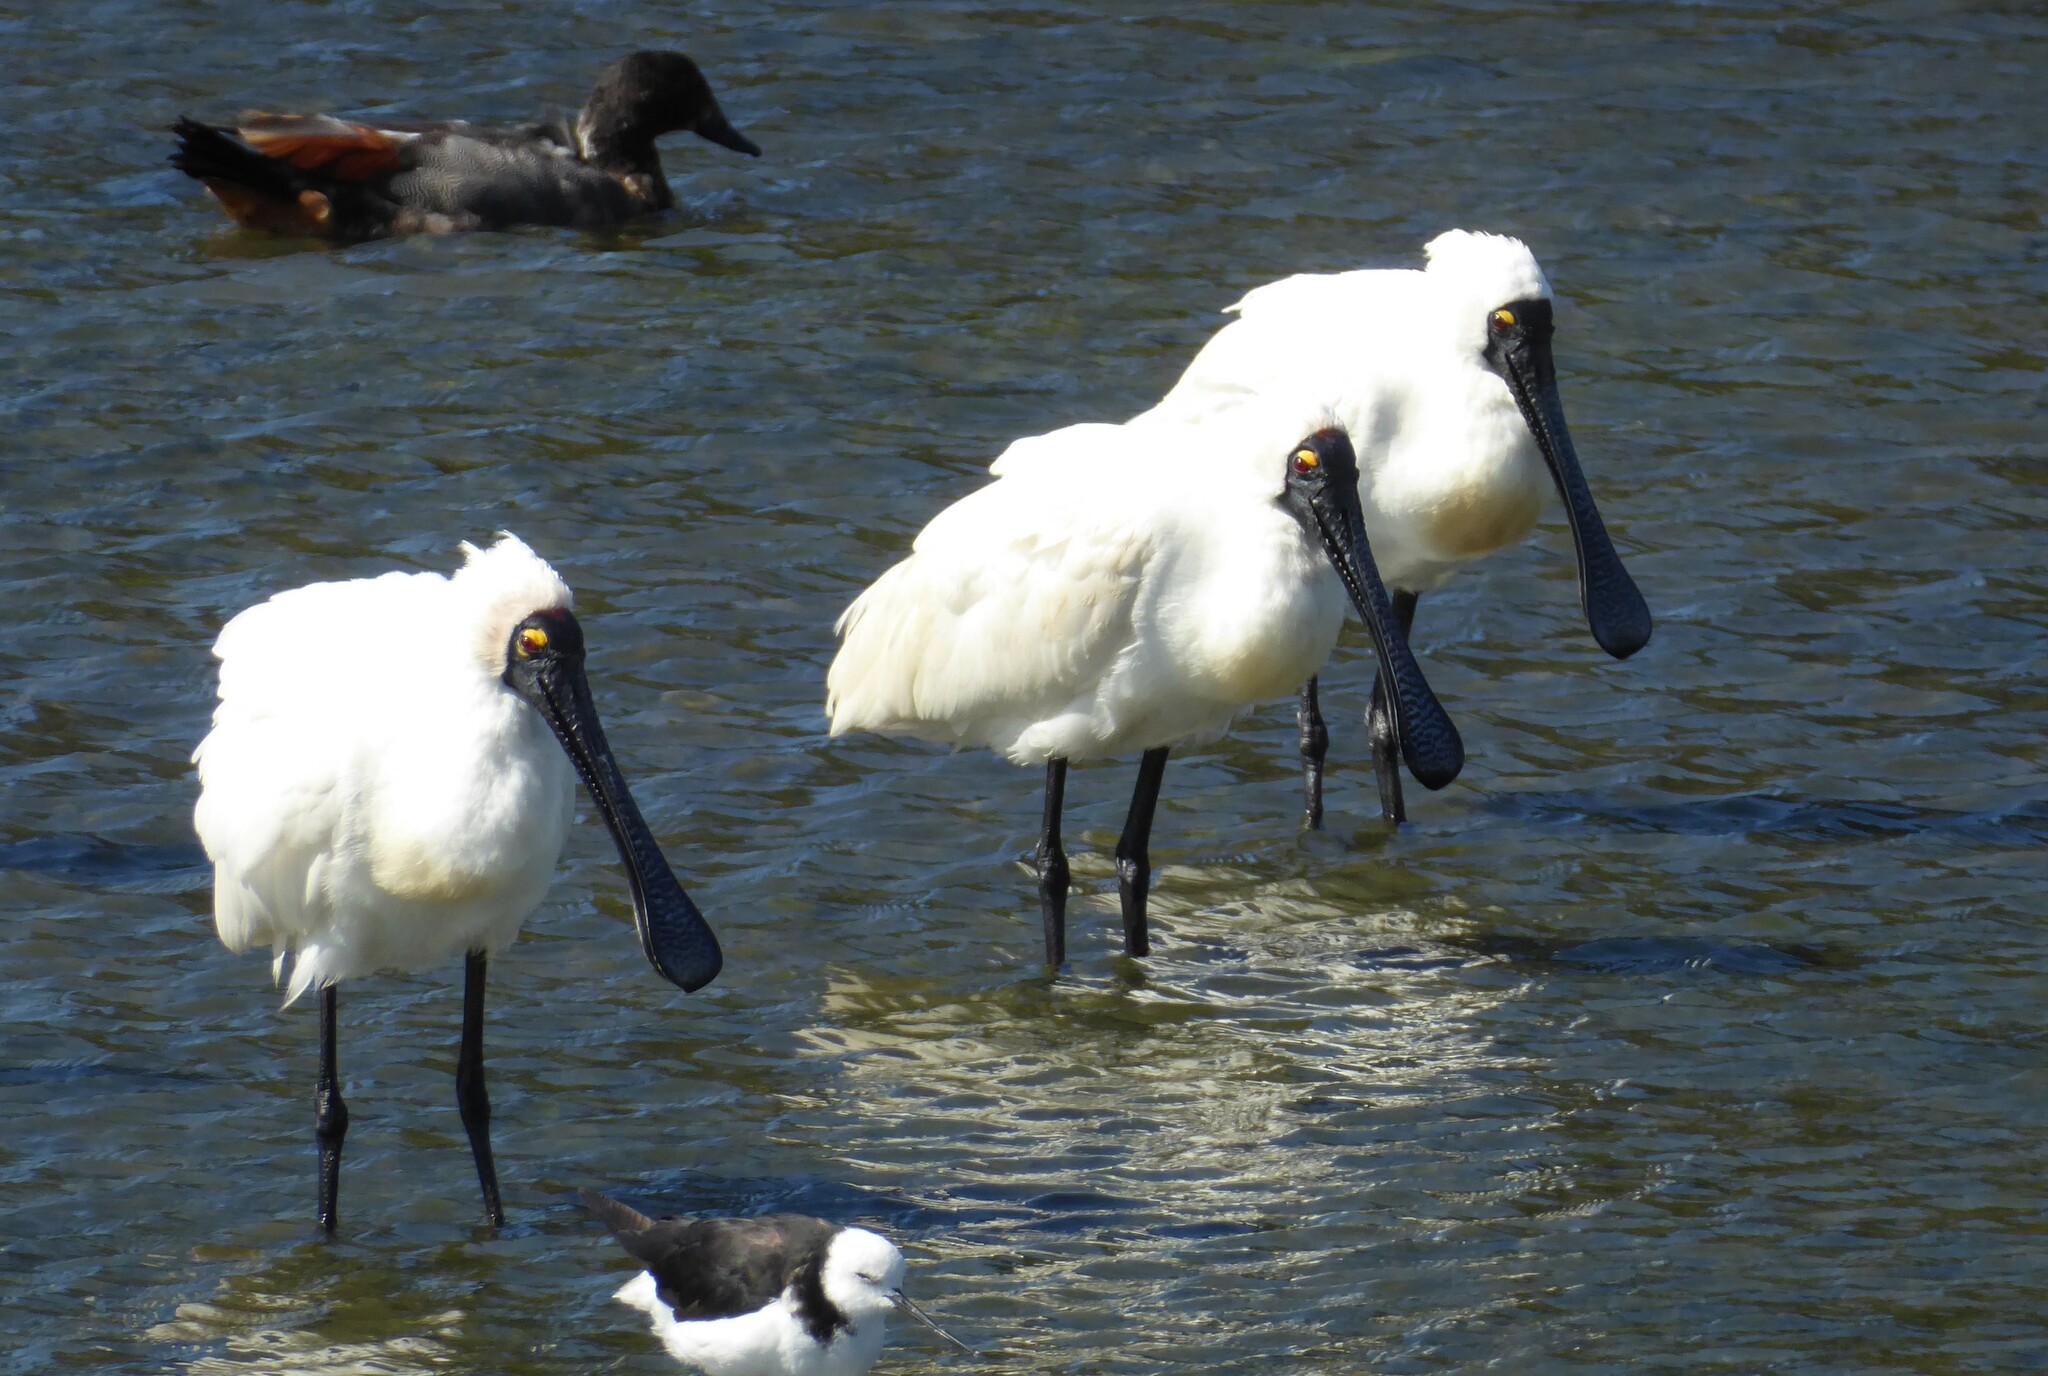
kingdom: Animalia
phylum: Chordata
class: Aves
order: Pelecaniformes
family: Threskiornithidae
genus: Platalea
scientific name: Platalea regia
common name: Royal spoonbill
